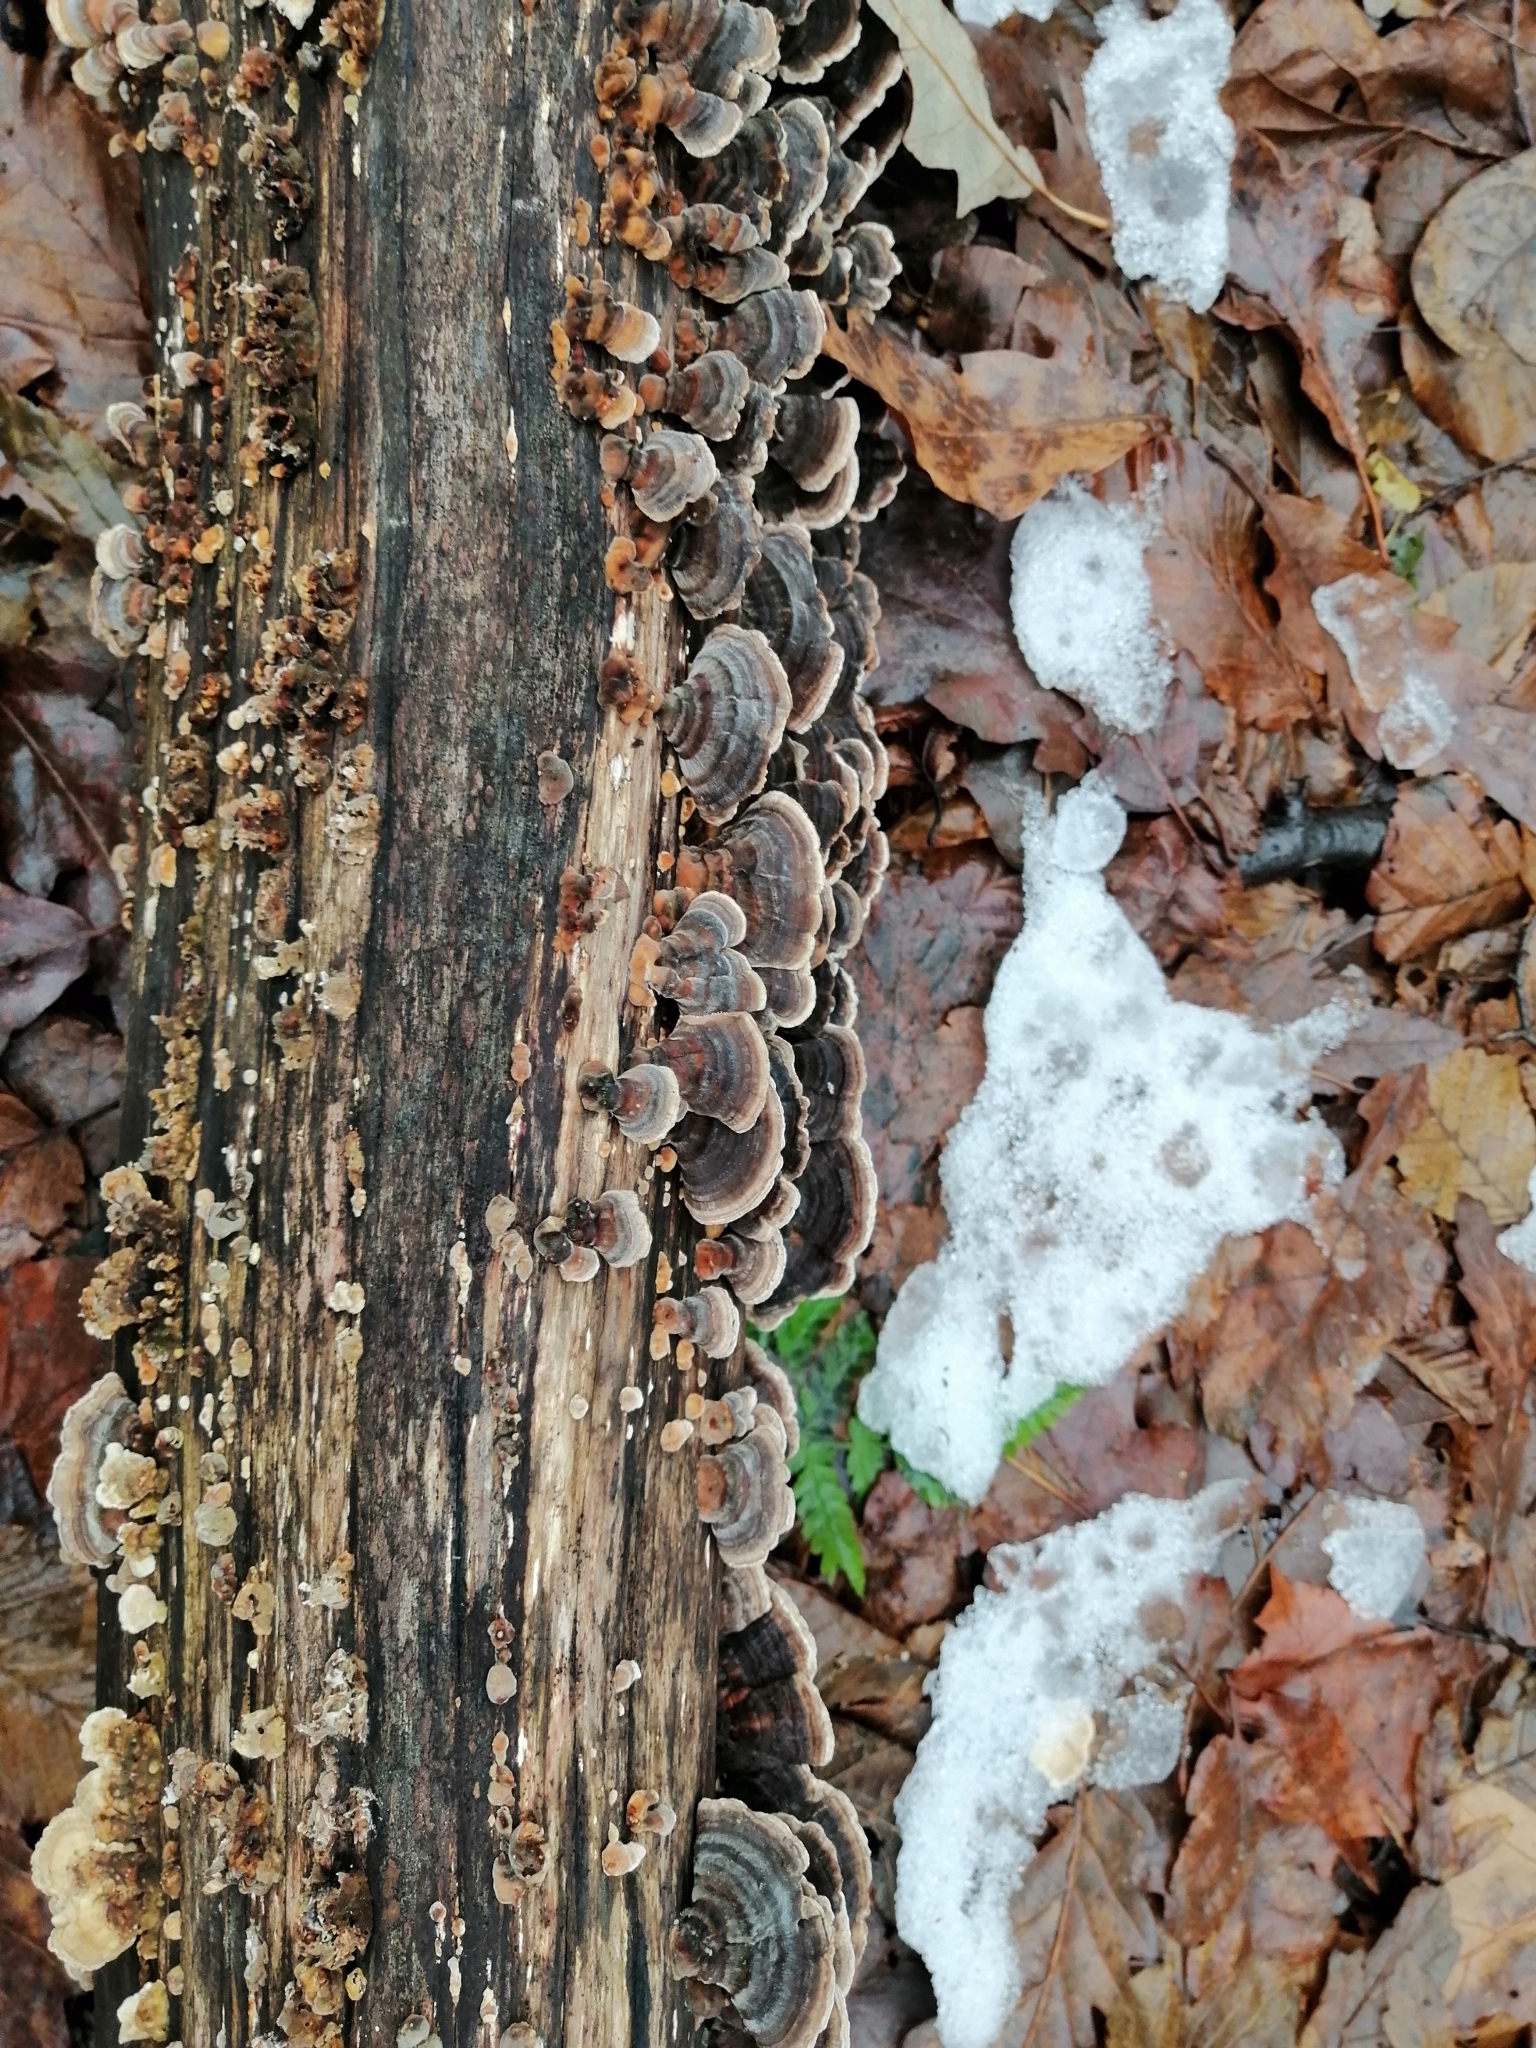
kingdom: Fungi
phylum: Basidiomycota
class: Agaricomycetes
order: Polyporales
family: Polyporaceae
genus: Trametes
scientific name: Trametes versicolor
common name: Turkeytail
